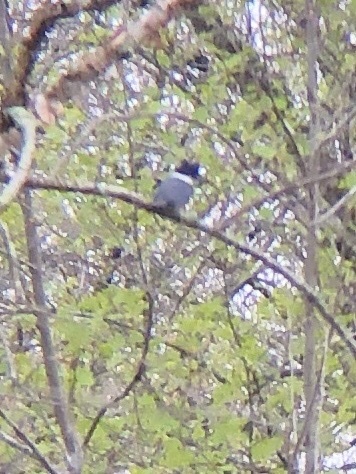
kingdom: Animalia
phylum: Chordata
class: Aves
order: Coraciiformes
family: Alcedinidae
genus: Megaceryle
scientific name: Megaceryle alcyon
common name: Belted kingfisher
